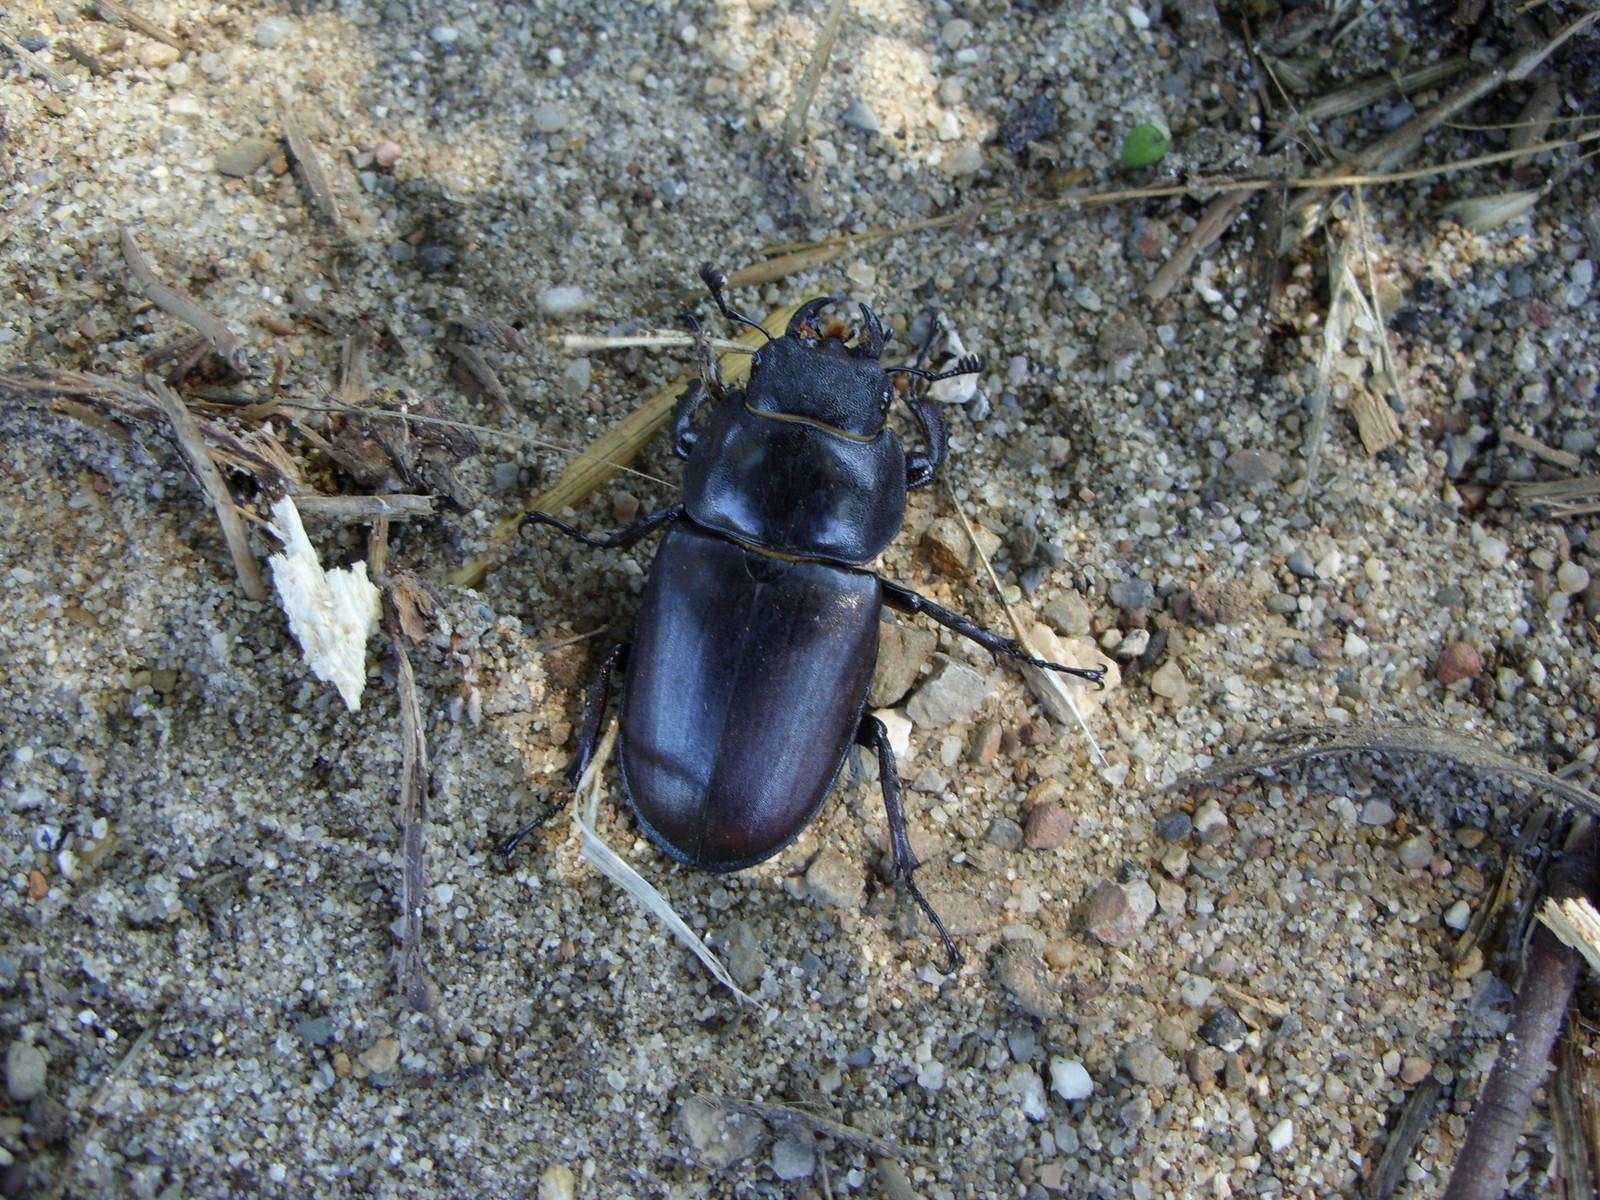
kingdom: Animalia
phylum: Arthropoda
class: Insecta
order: Coleoptera
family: Lucanidae
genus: Lucanus
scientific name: Lucanus cervus
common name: Stag beetle
